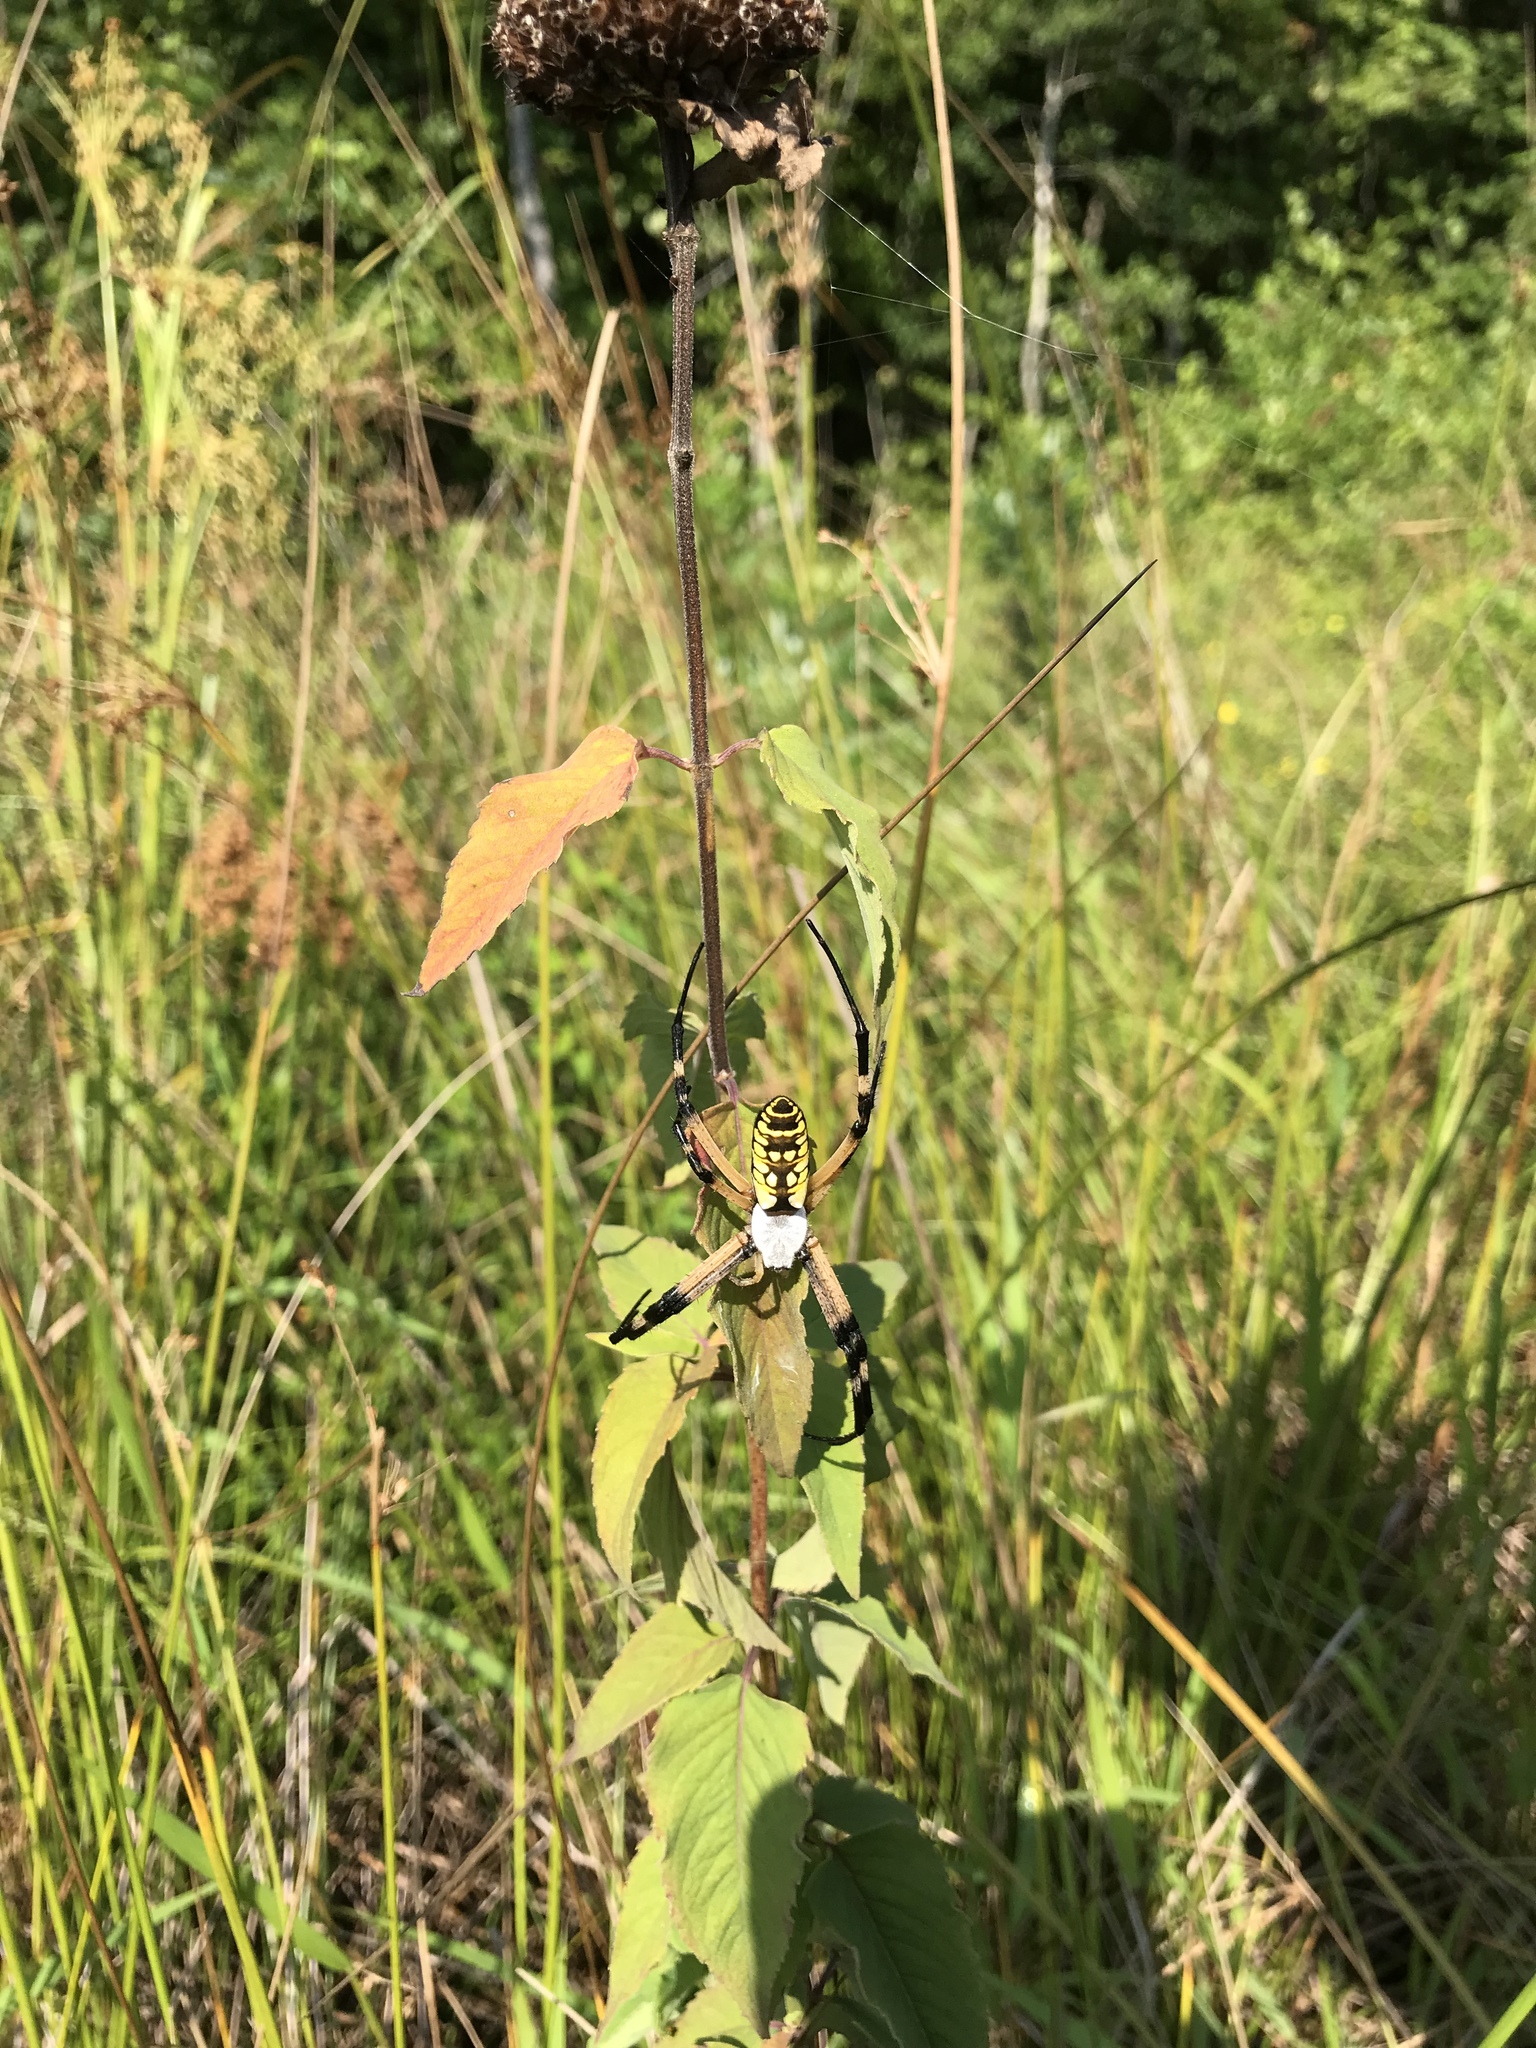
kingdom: Animalia
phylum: Arthropoda
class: Arachnida
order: Araneae
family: Araneidae
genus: Argiope
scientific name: Argiope aurantia
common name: Orb weavers
